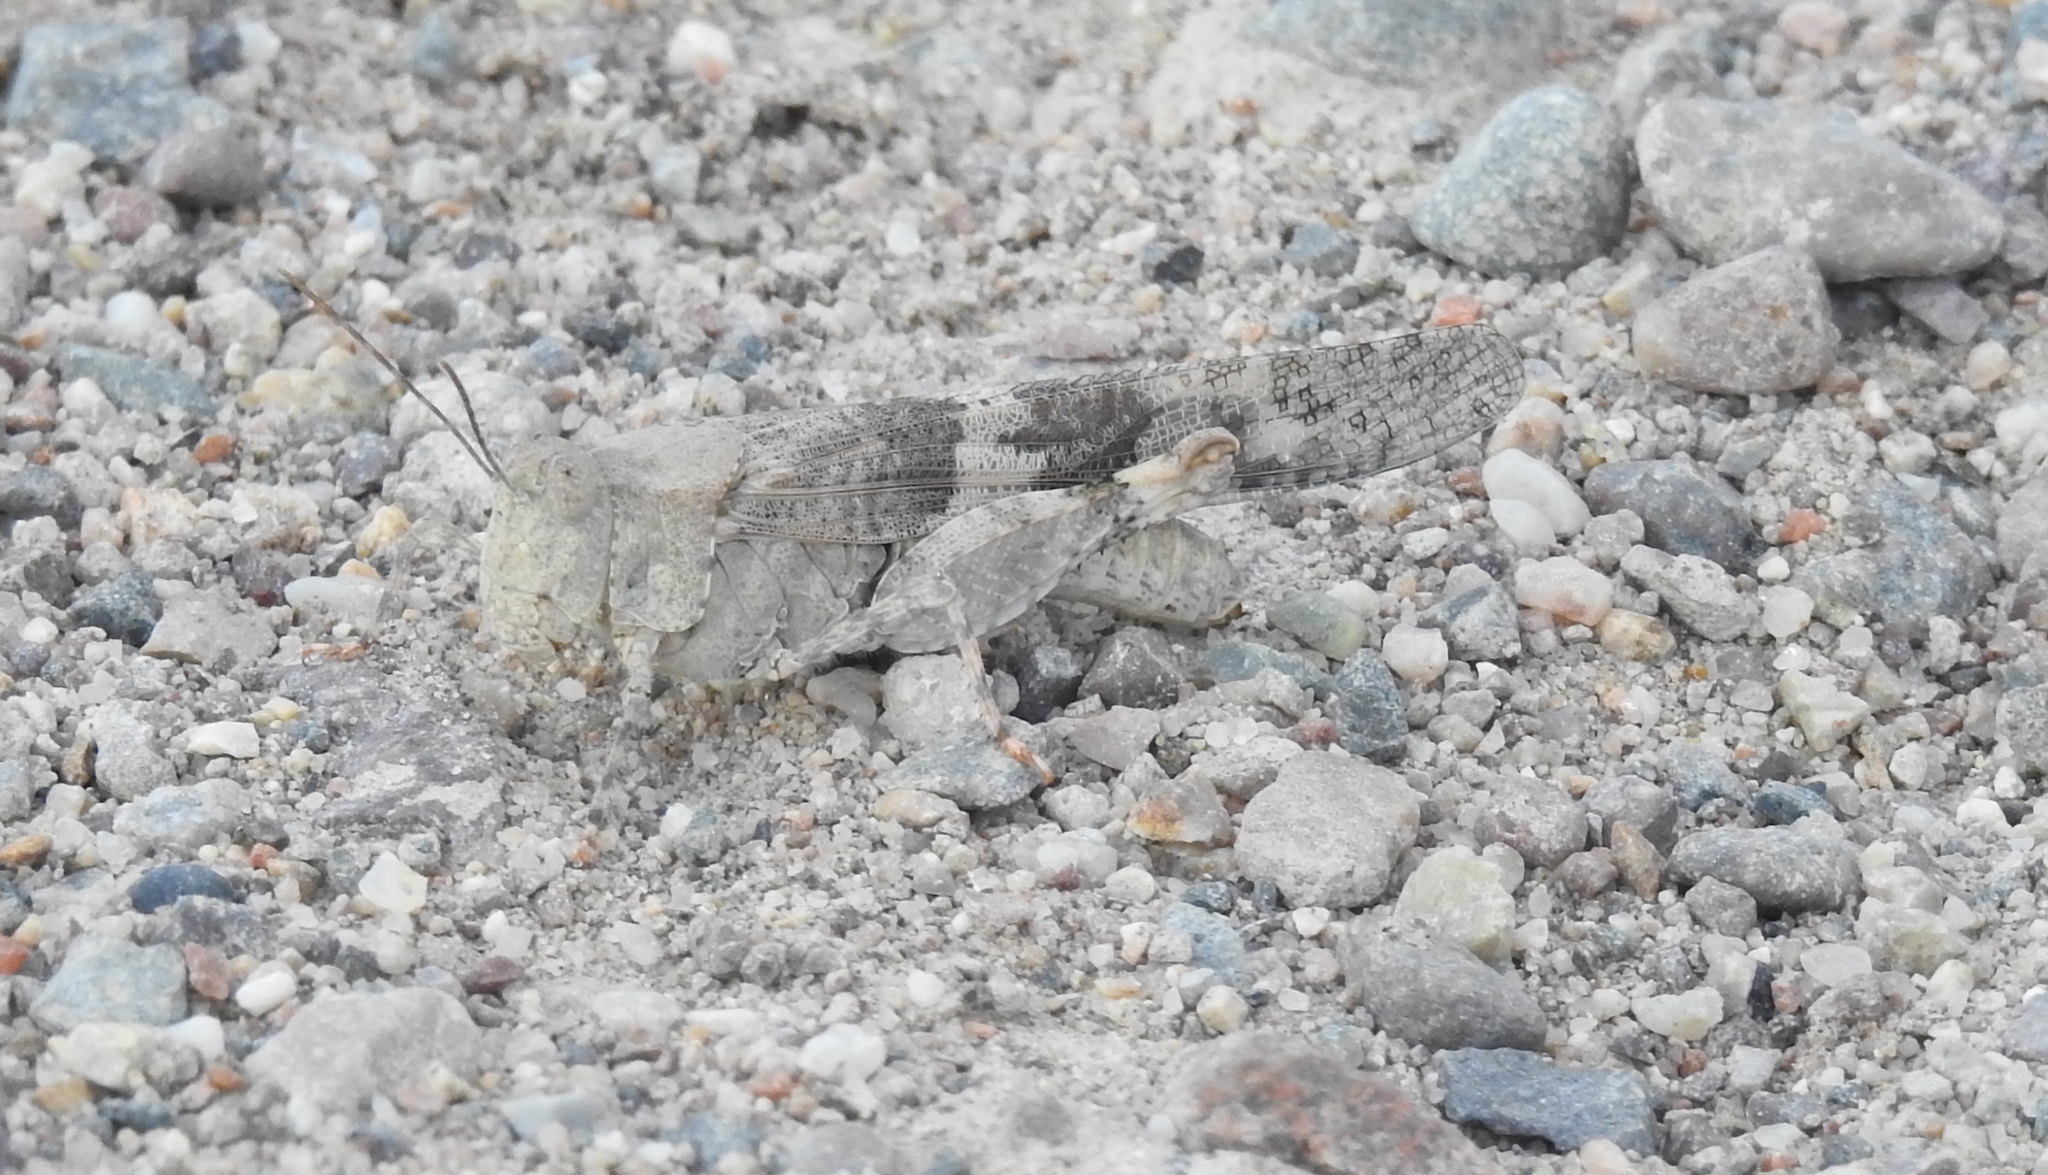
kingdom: Animalia
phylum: Arthropoda
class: Insecta
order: Orthoptera
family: Acrididae
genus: Trimerotropis
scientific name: Trimerotropis pallidipennis
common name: Pallid-winged grasshopper
